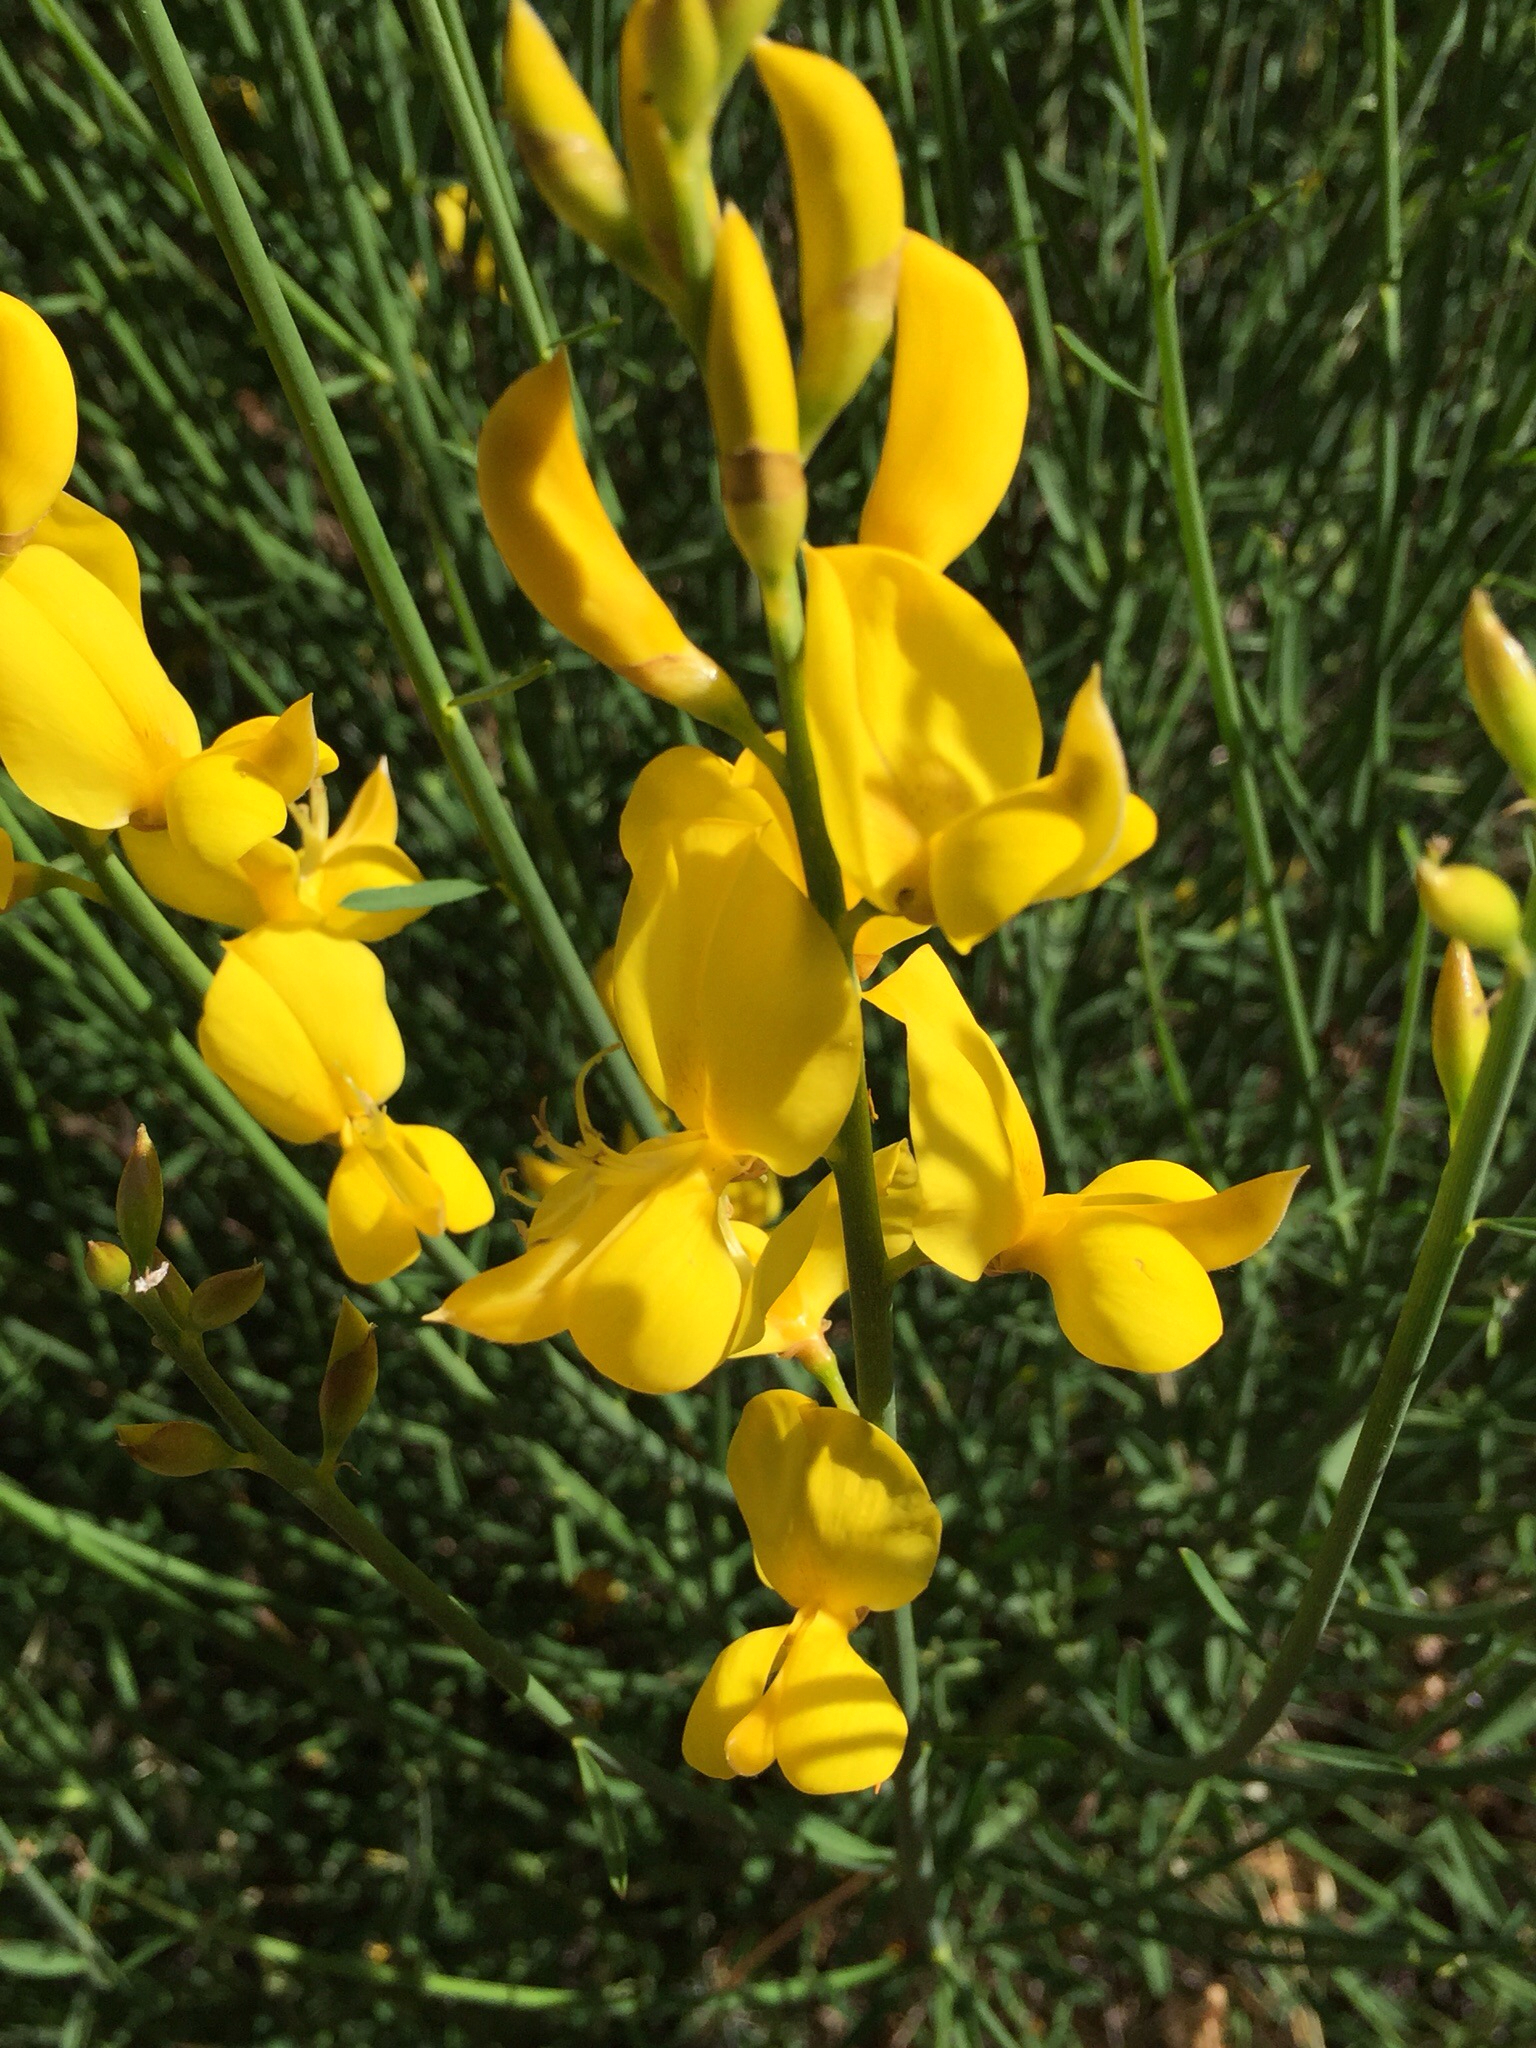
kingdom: Plantae
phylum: Tracheophyta
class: Magnoliopsida
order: Fabales
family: Fabaceae
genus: Spartium
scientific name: Spartium junceum
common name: Spanish broom
